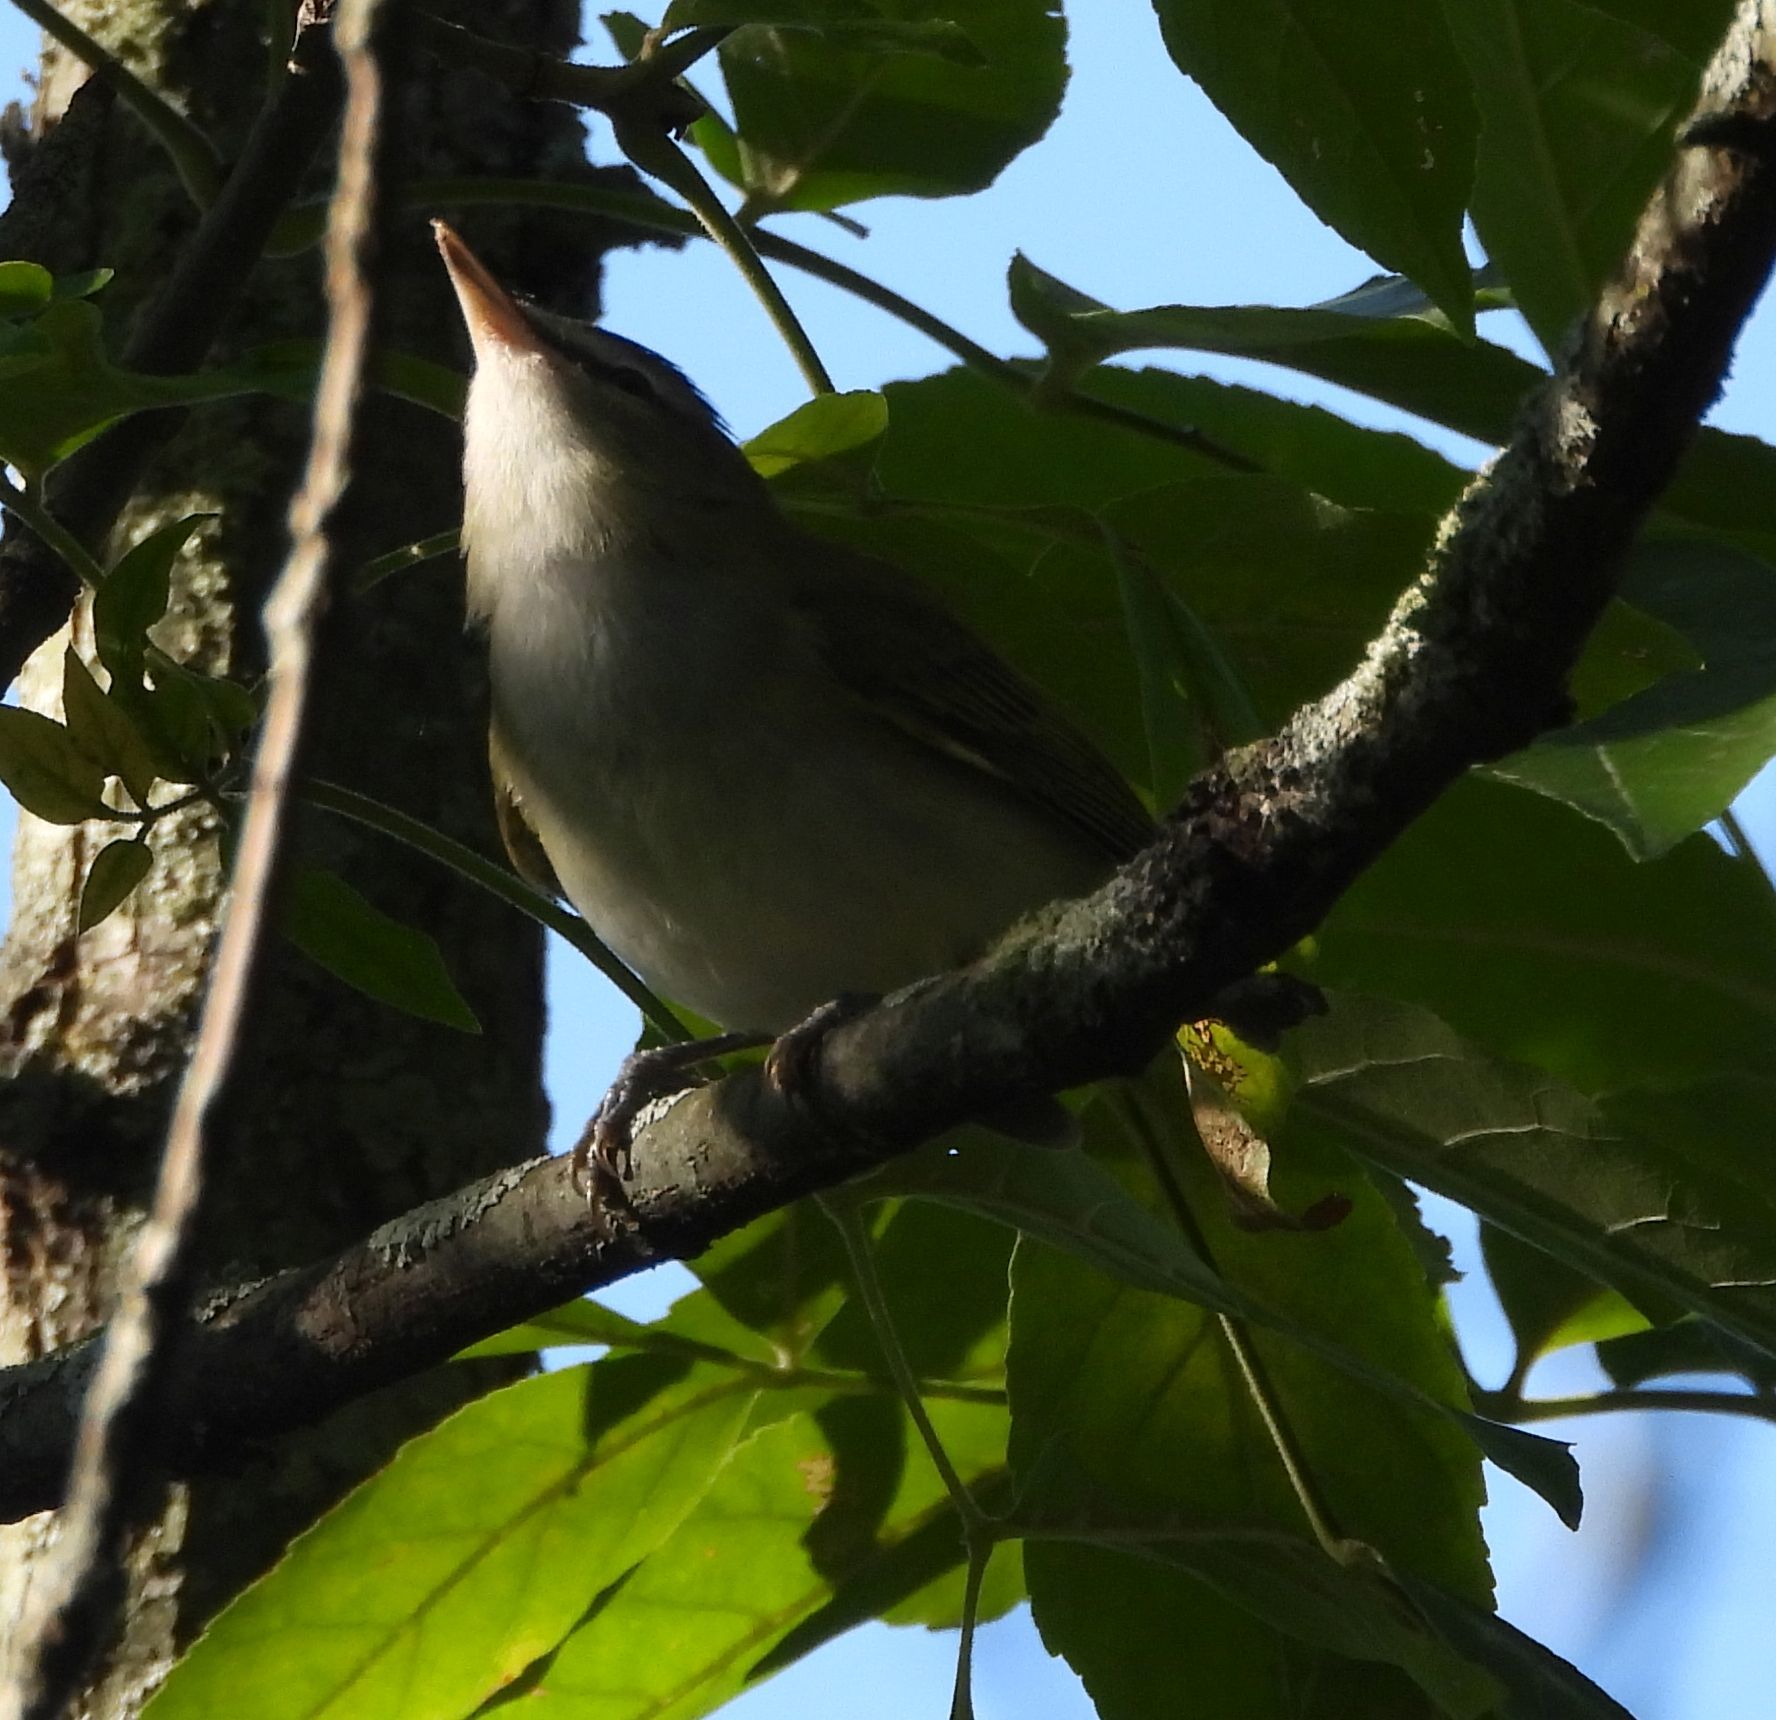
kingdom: Animalia
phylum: Chordata
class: Aves
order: Passeriformes
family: Vireonidae
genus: Vireo
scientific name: Vireo olivaceus
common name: Red-eyed vireo
